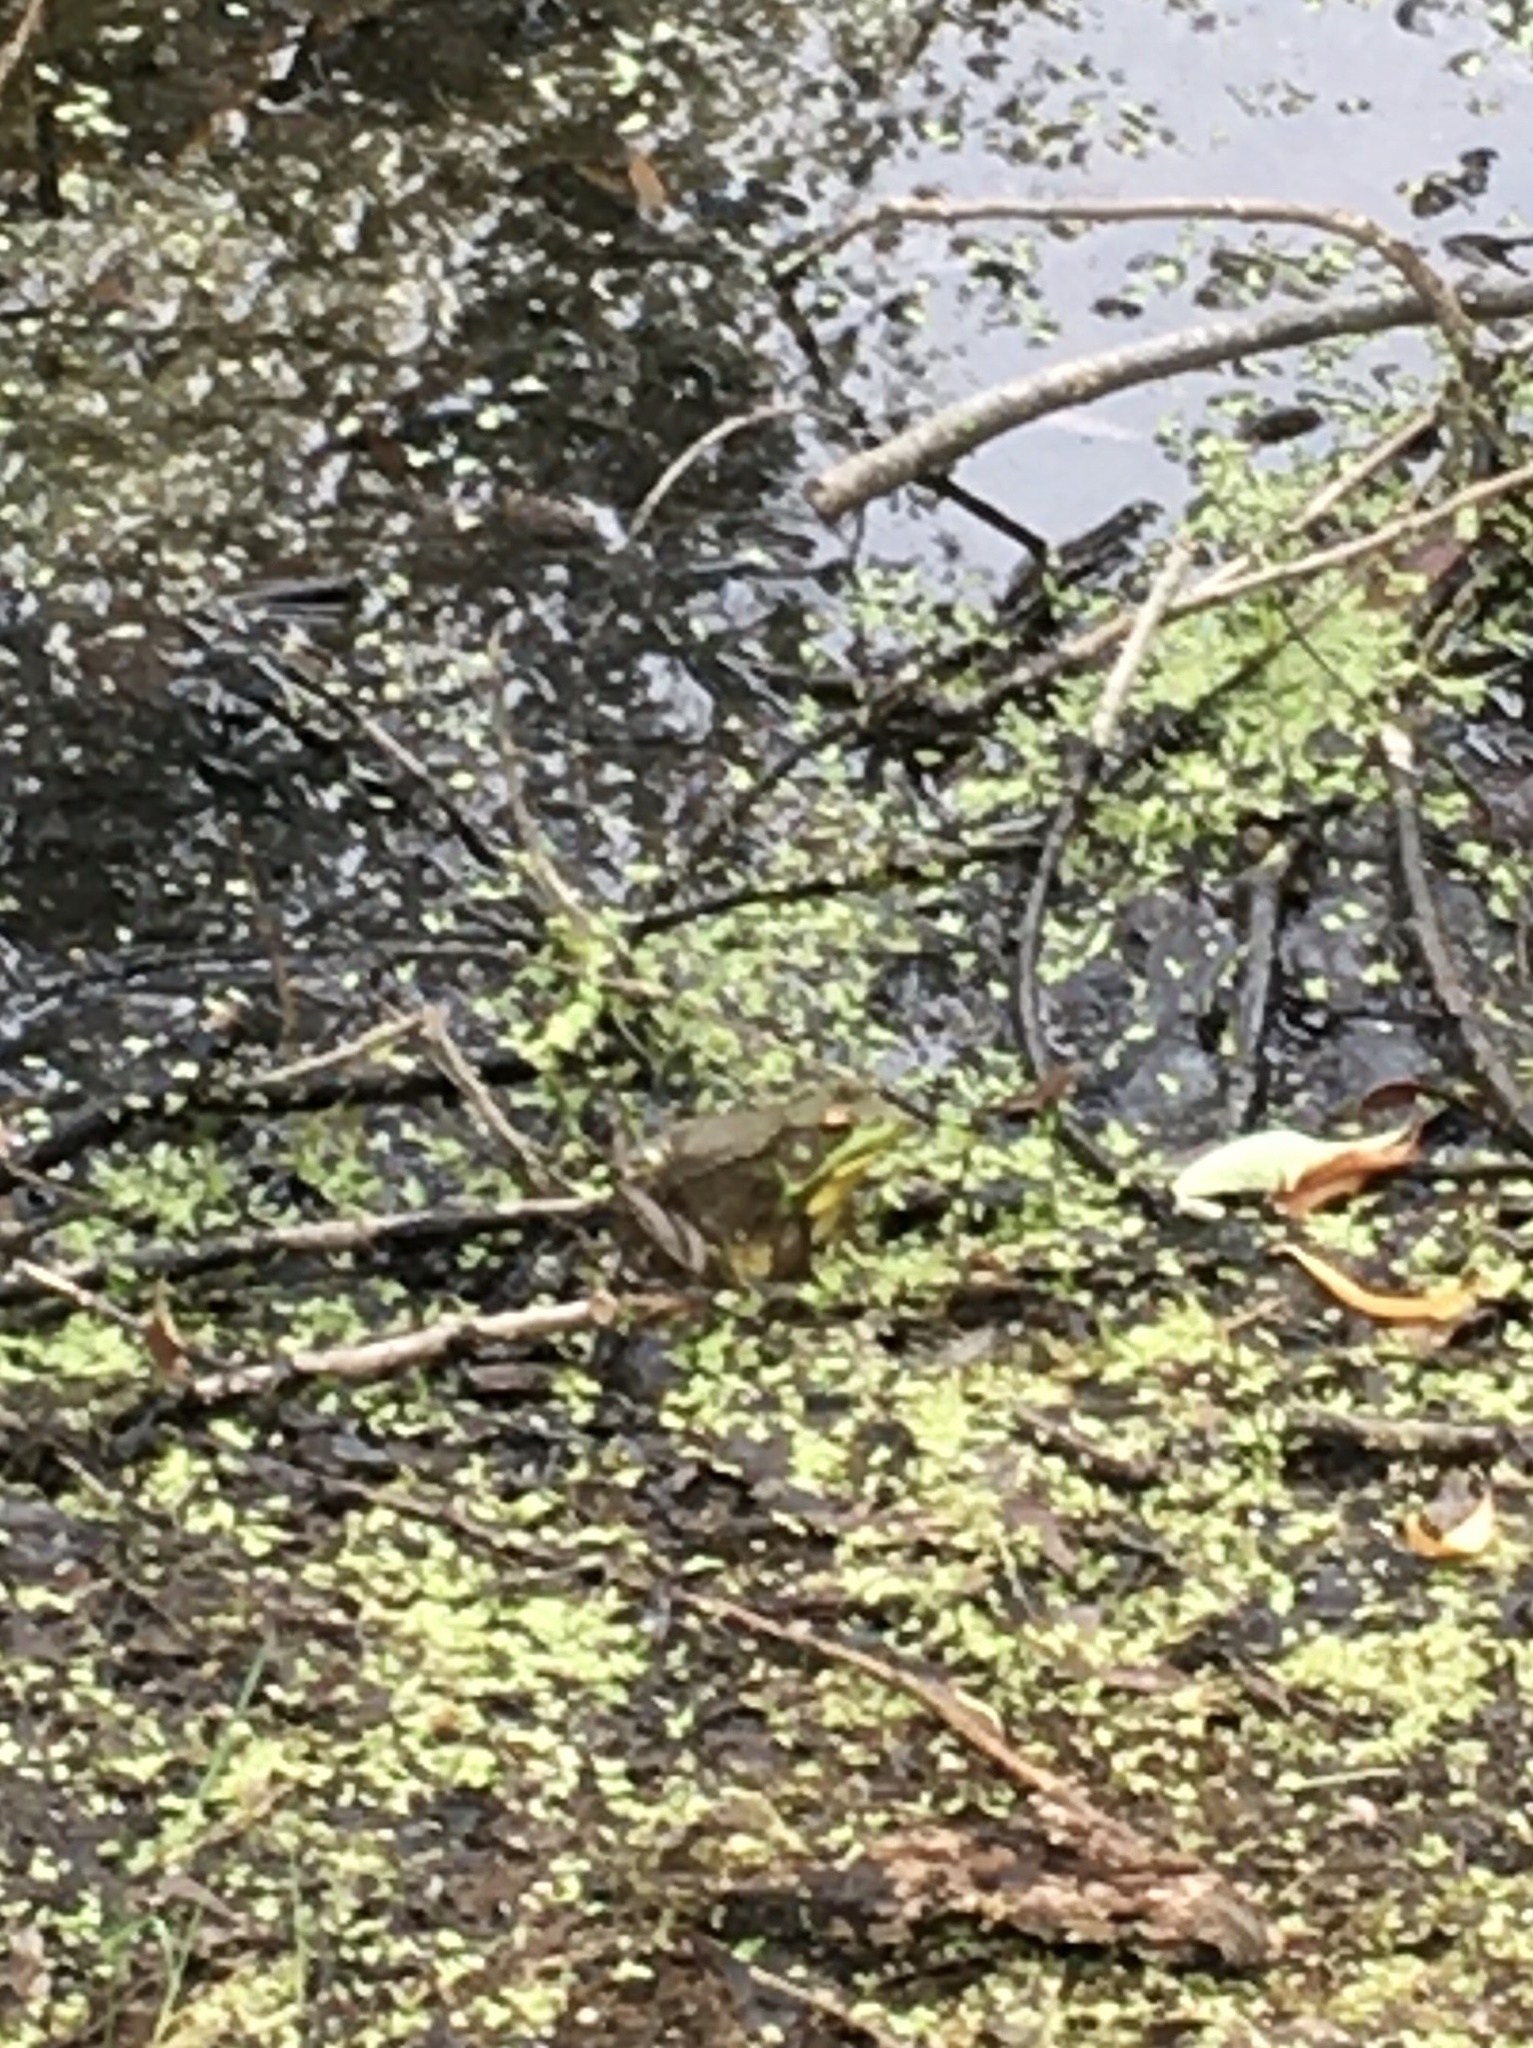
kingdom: Animalia
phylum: Chordata
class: Amphibia
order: Anura
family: Ranidae
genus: Lithobates
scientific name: Lithobates clamitans
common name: Green frog
